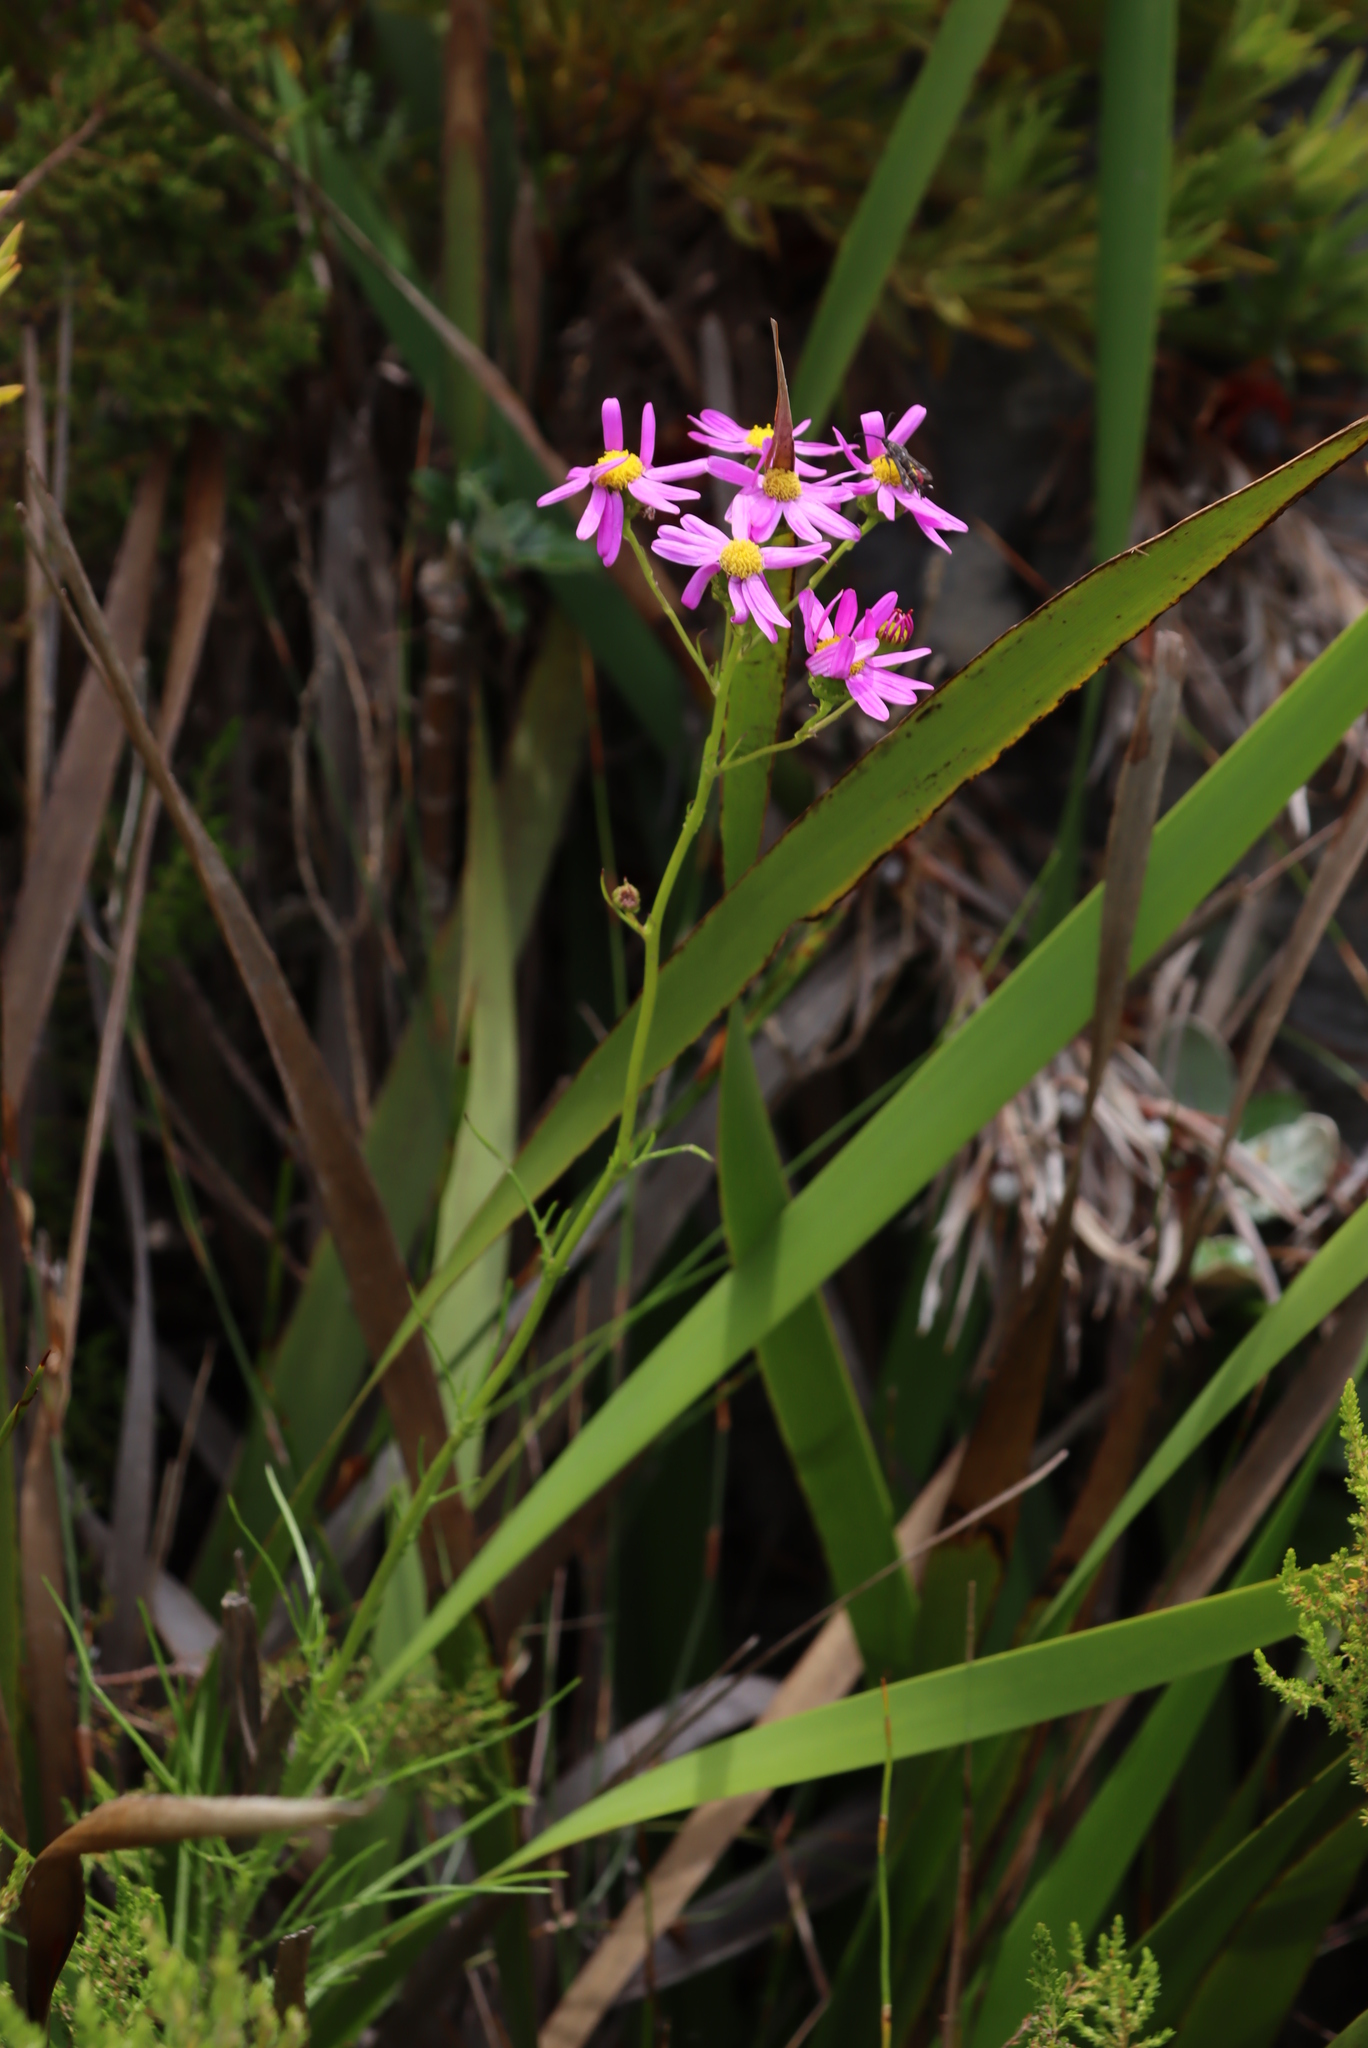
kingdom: Plantae
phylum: Tracheophyta
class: Magnoliopsida
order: Asterales
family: Asteraceae
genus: Senecio
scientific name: Senecio umbellatus
